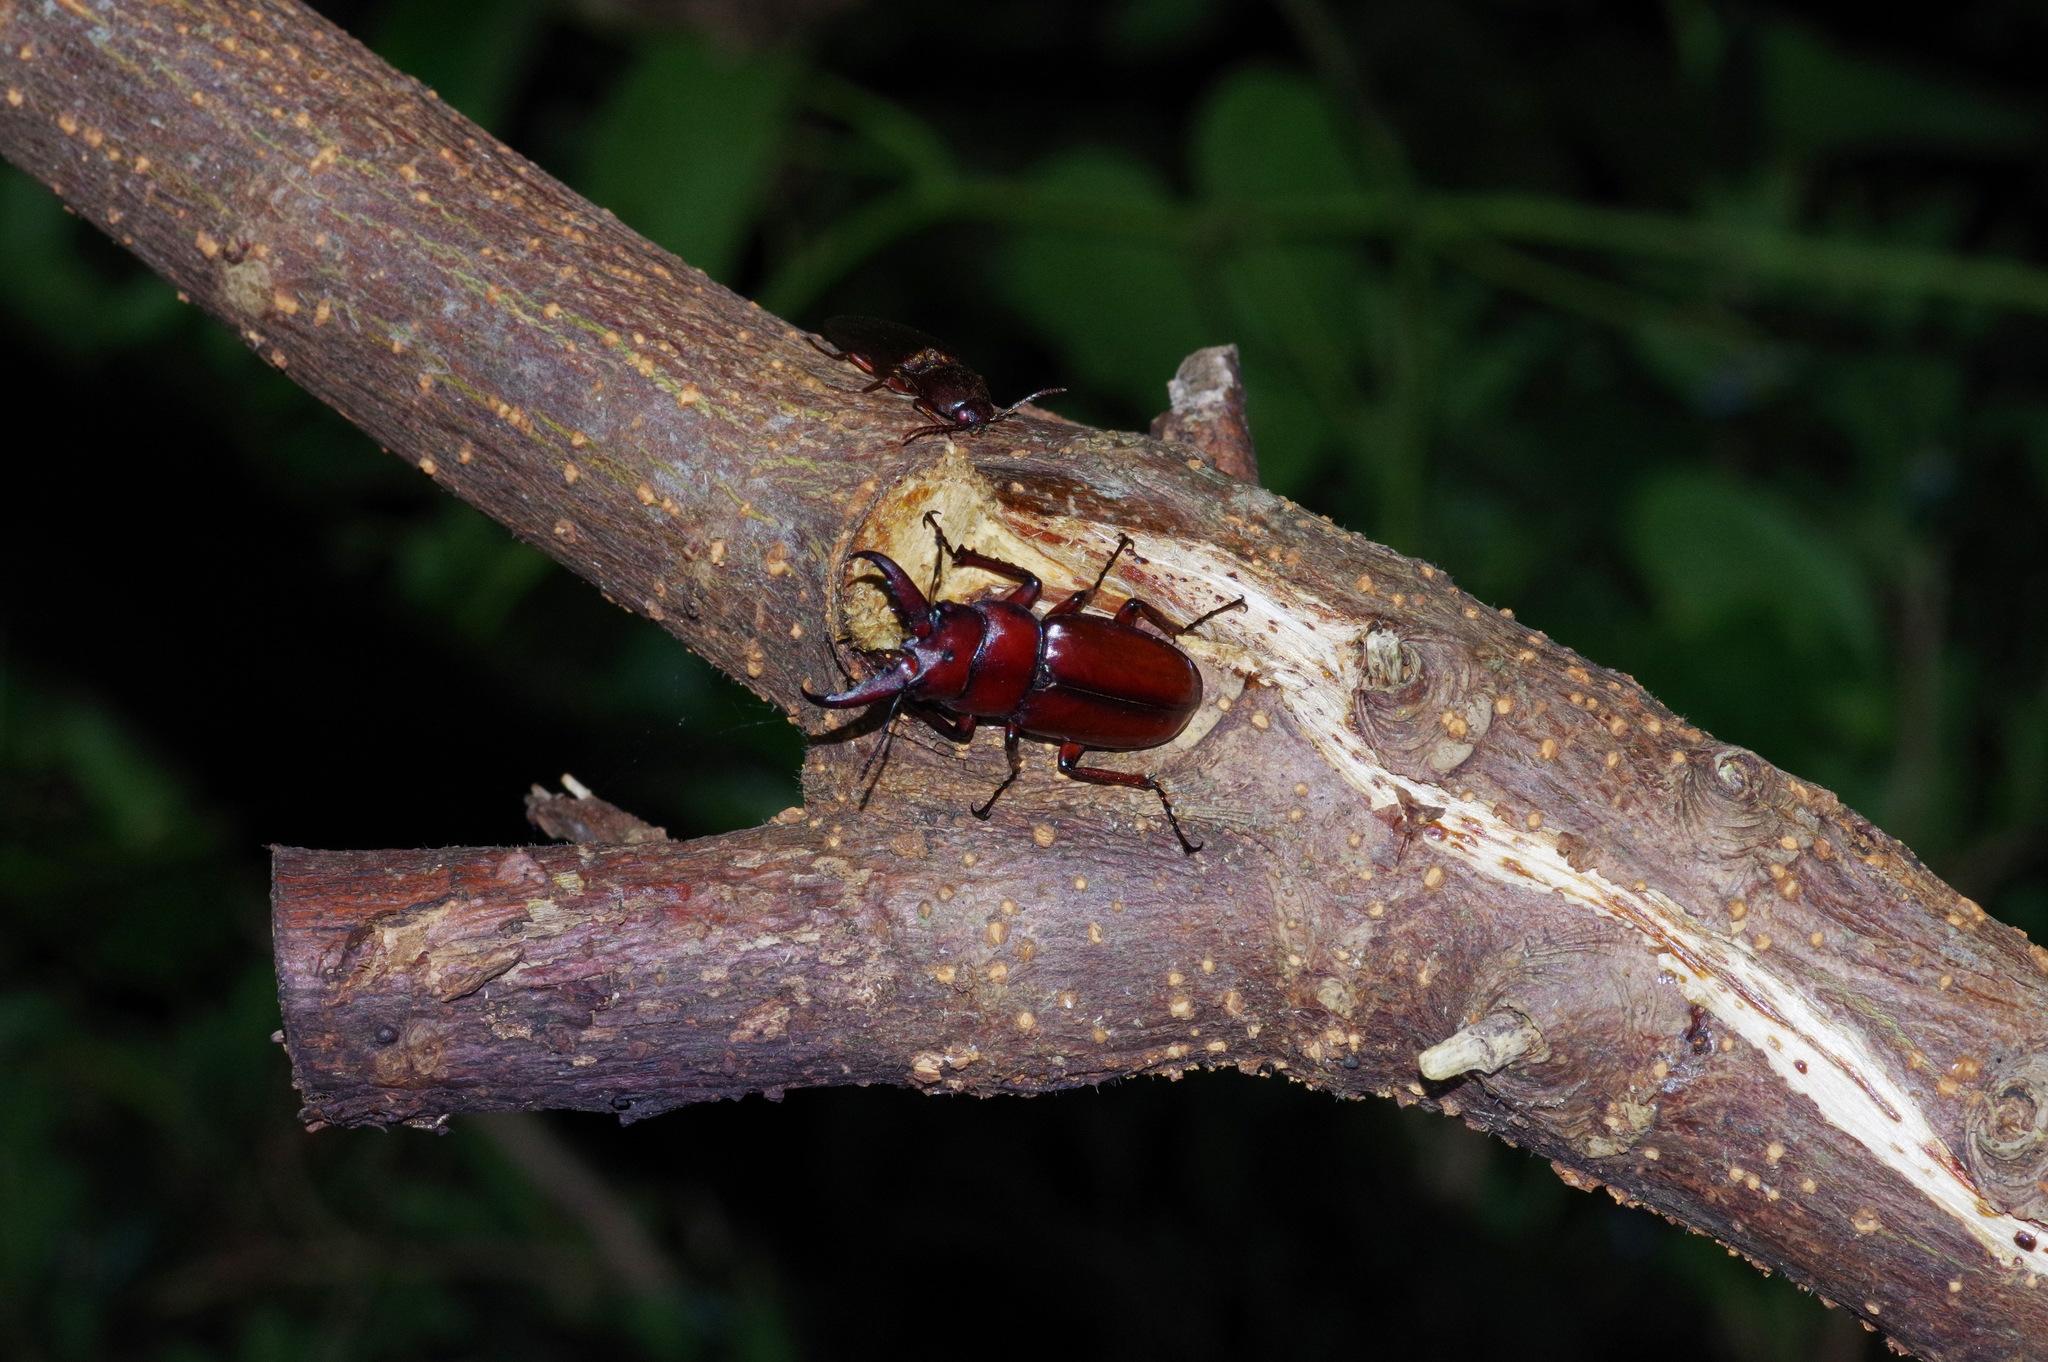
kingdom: Animalia
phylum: Arthropoda
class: Insecta
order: Coleoptera
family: Lucanidae
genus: Prosopocoilus
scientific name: Prosopocoilus dissimilis
